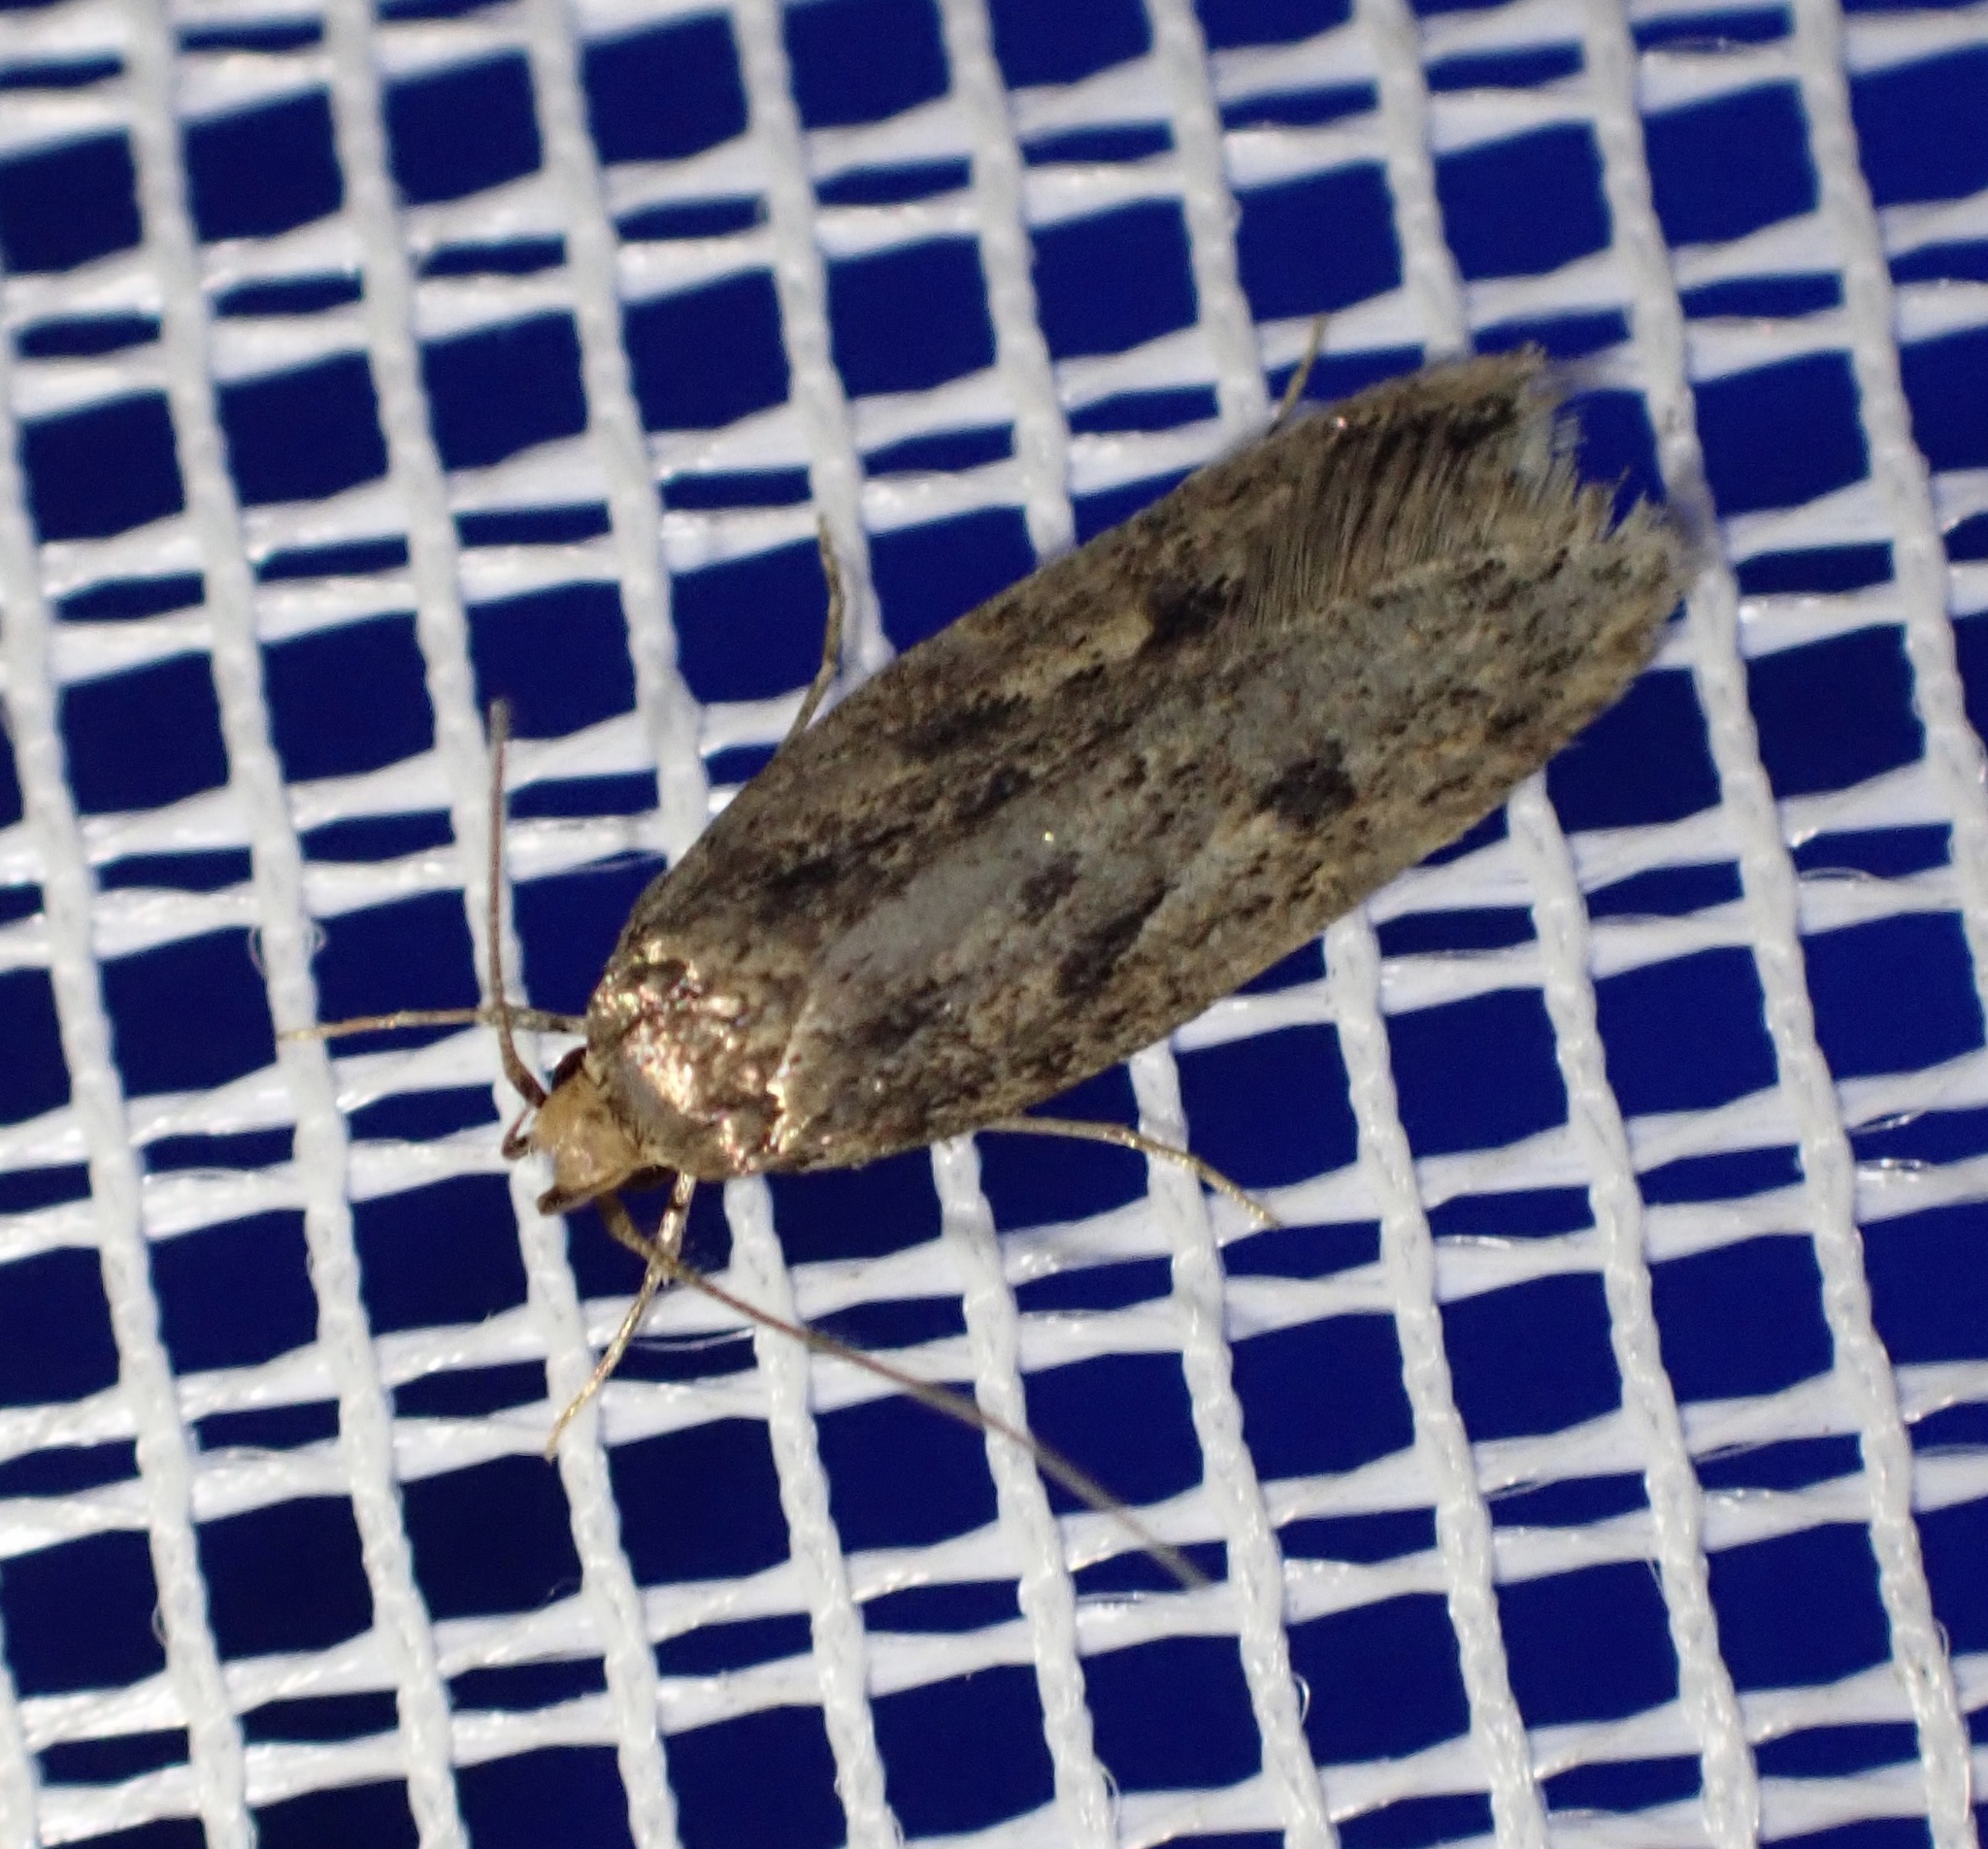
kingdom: Animalia
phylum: Arthropoda
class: Insecta
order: Lepidoptera
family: Oecophoridae
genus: Hofmannophila
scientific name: Hofmannophila pseudospretella
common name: Brown house moth
